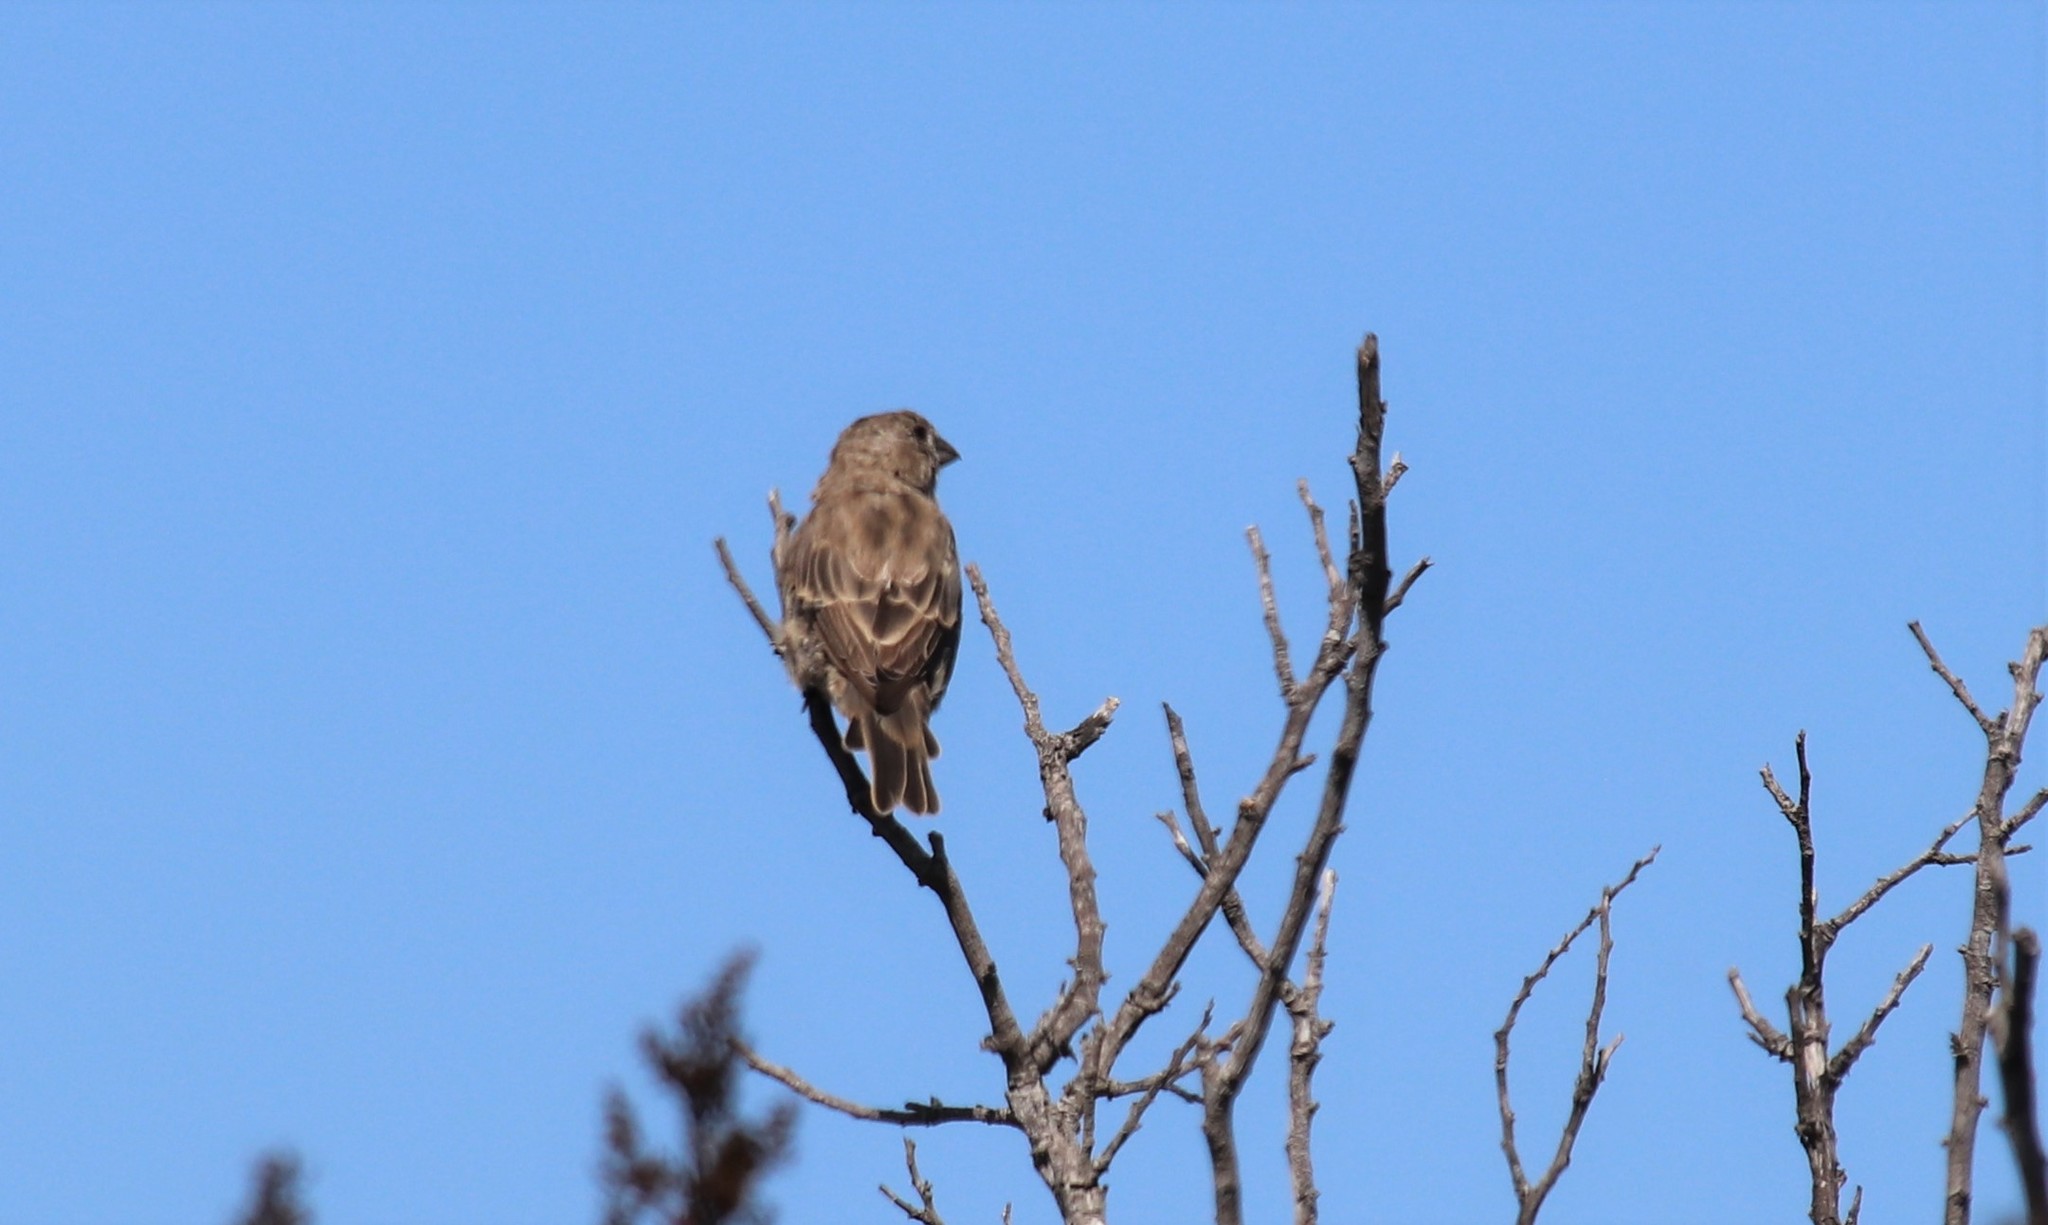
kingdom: Animalia
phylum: Chordata
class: Aves
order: Passeriformes
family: Fringillidae
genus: Haemorhous
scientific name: Haemorhous mexicanus
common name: House finch
